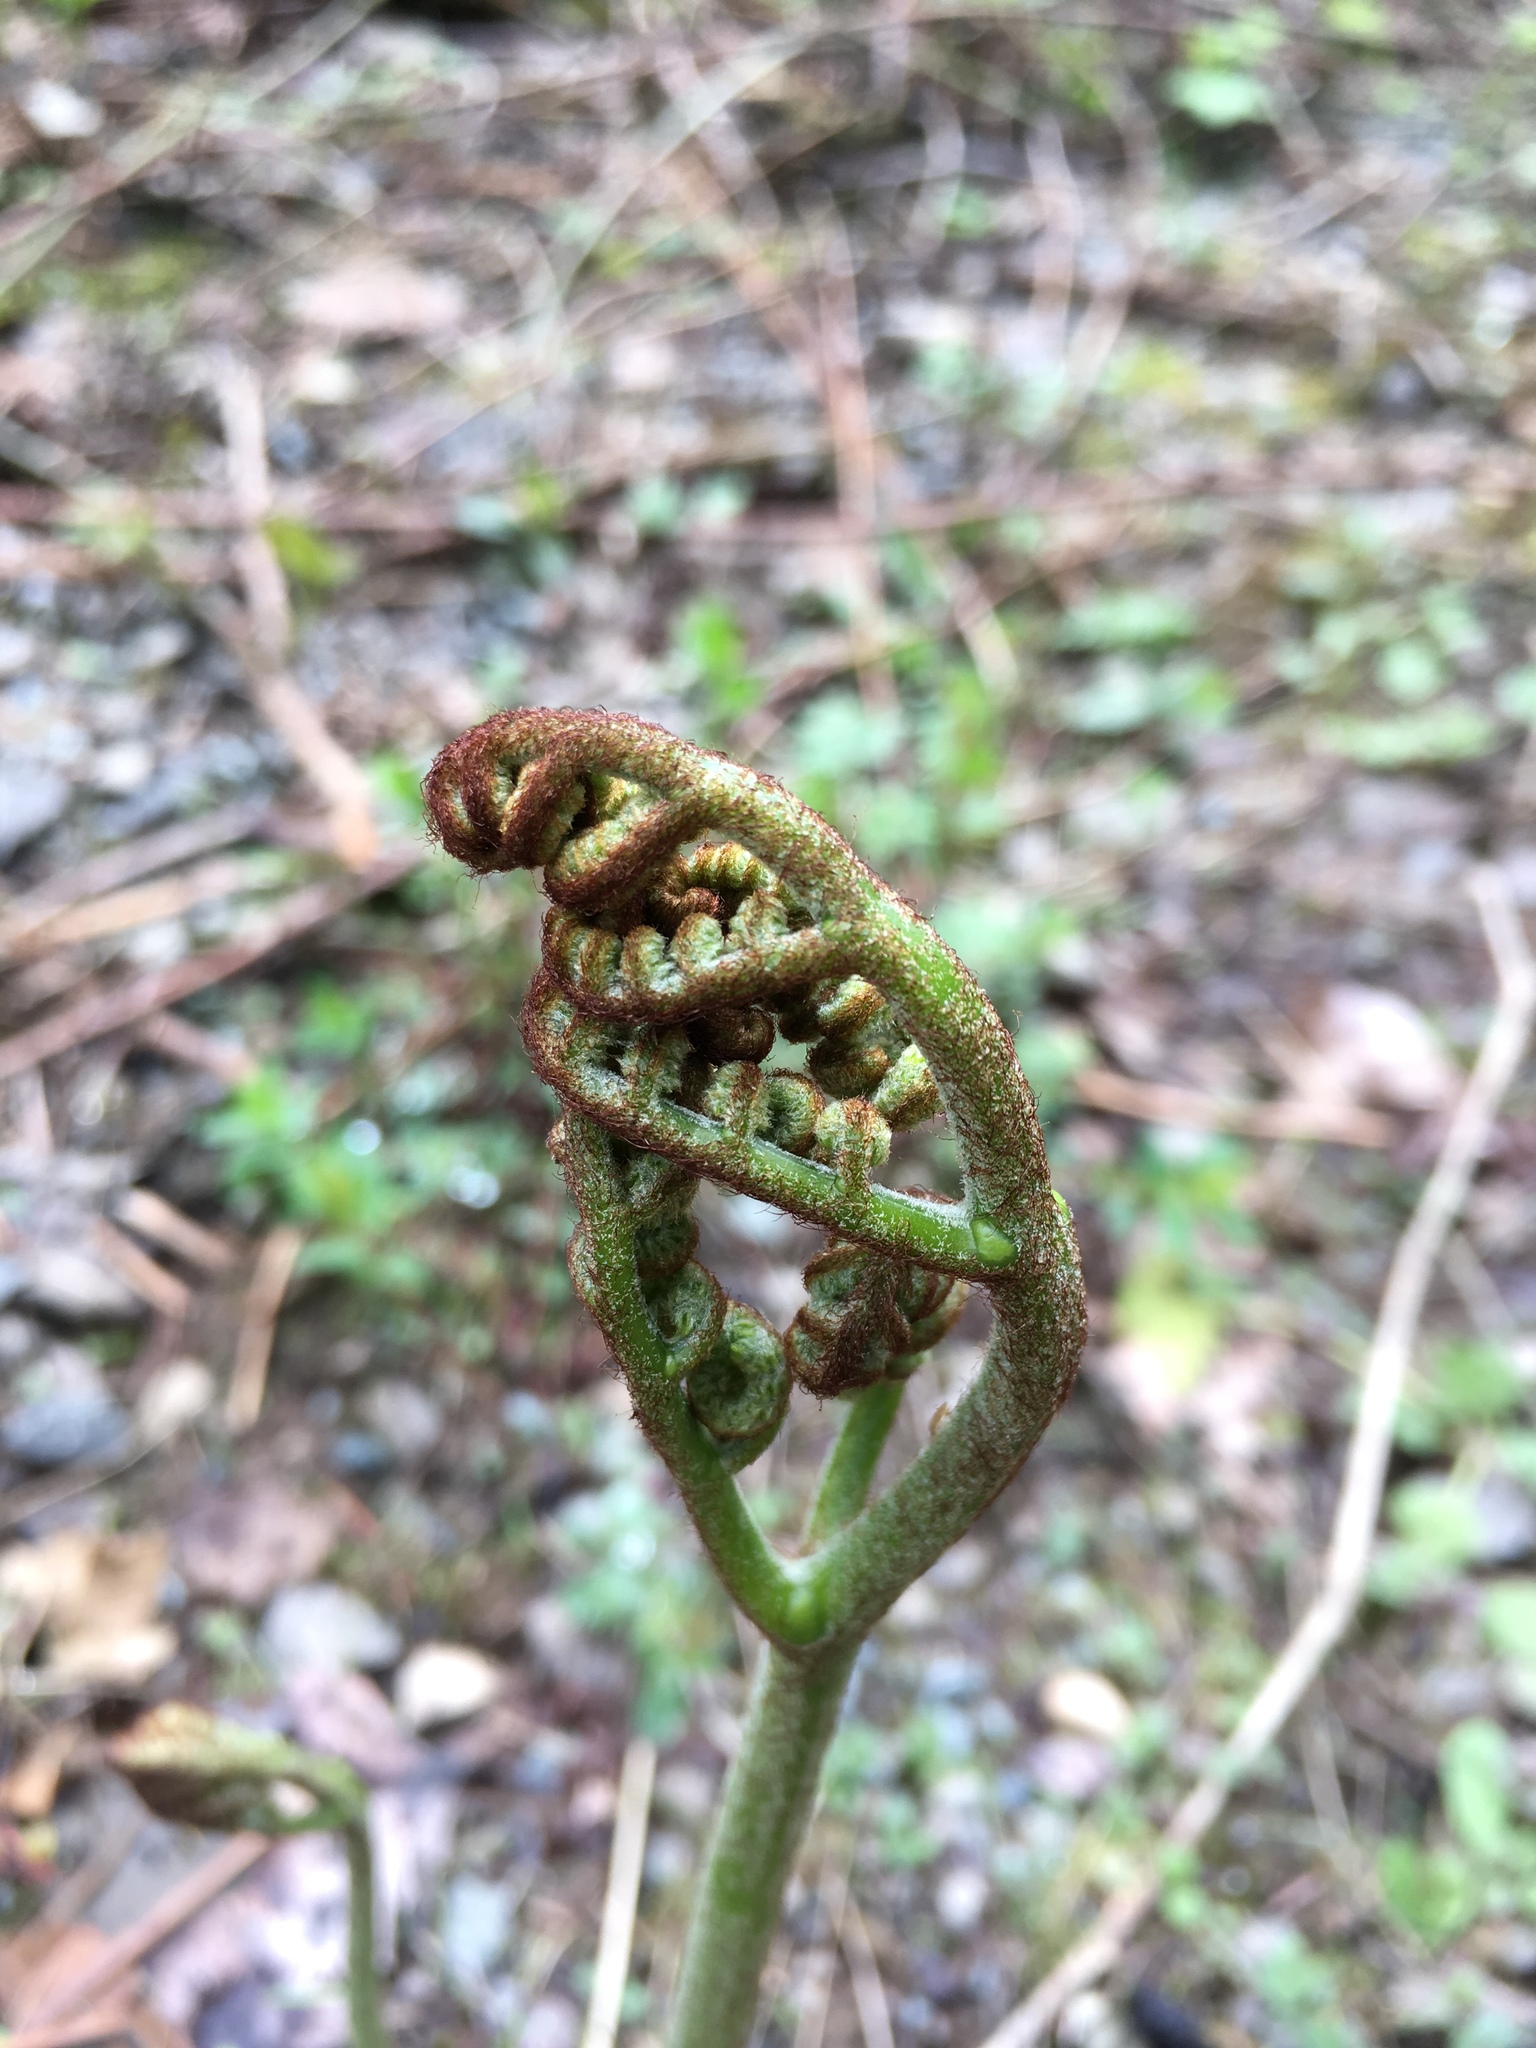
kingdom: Plantae
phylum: Tracheophyta
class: Polypodiopsida
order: Polypodiales
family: Dennstaedtiaceae
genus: Pteridium
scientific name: Pteridium aquilinum
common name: Bracken
